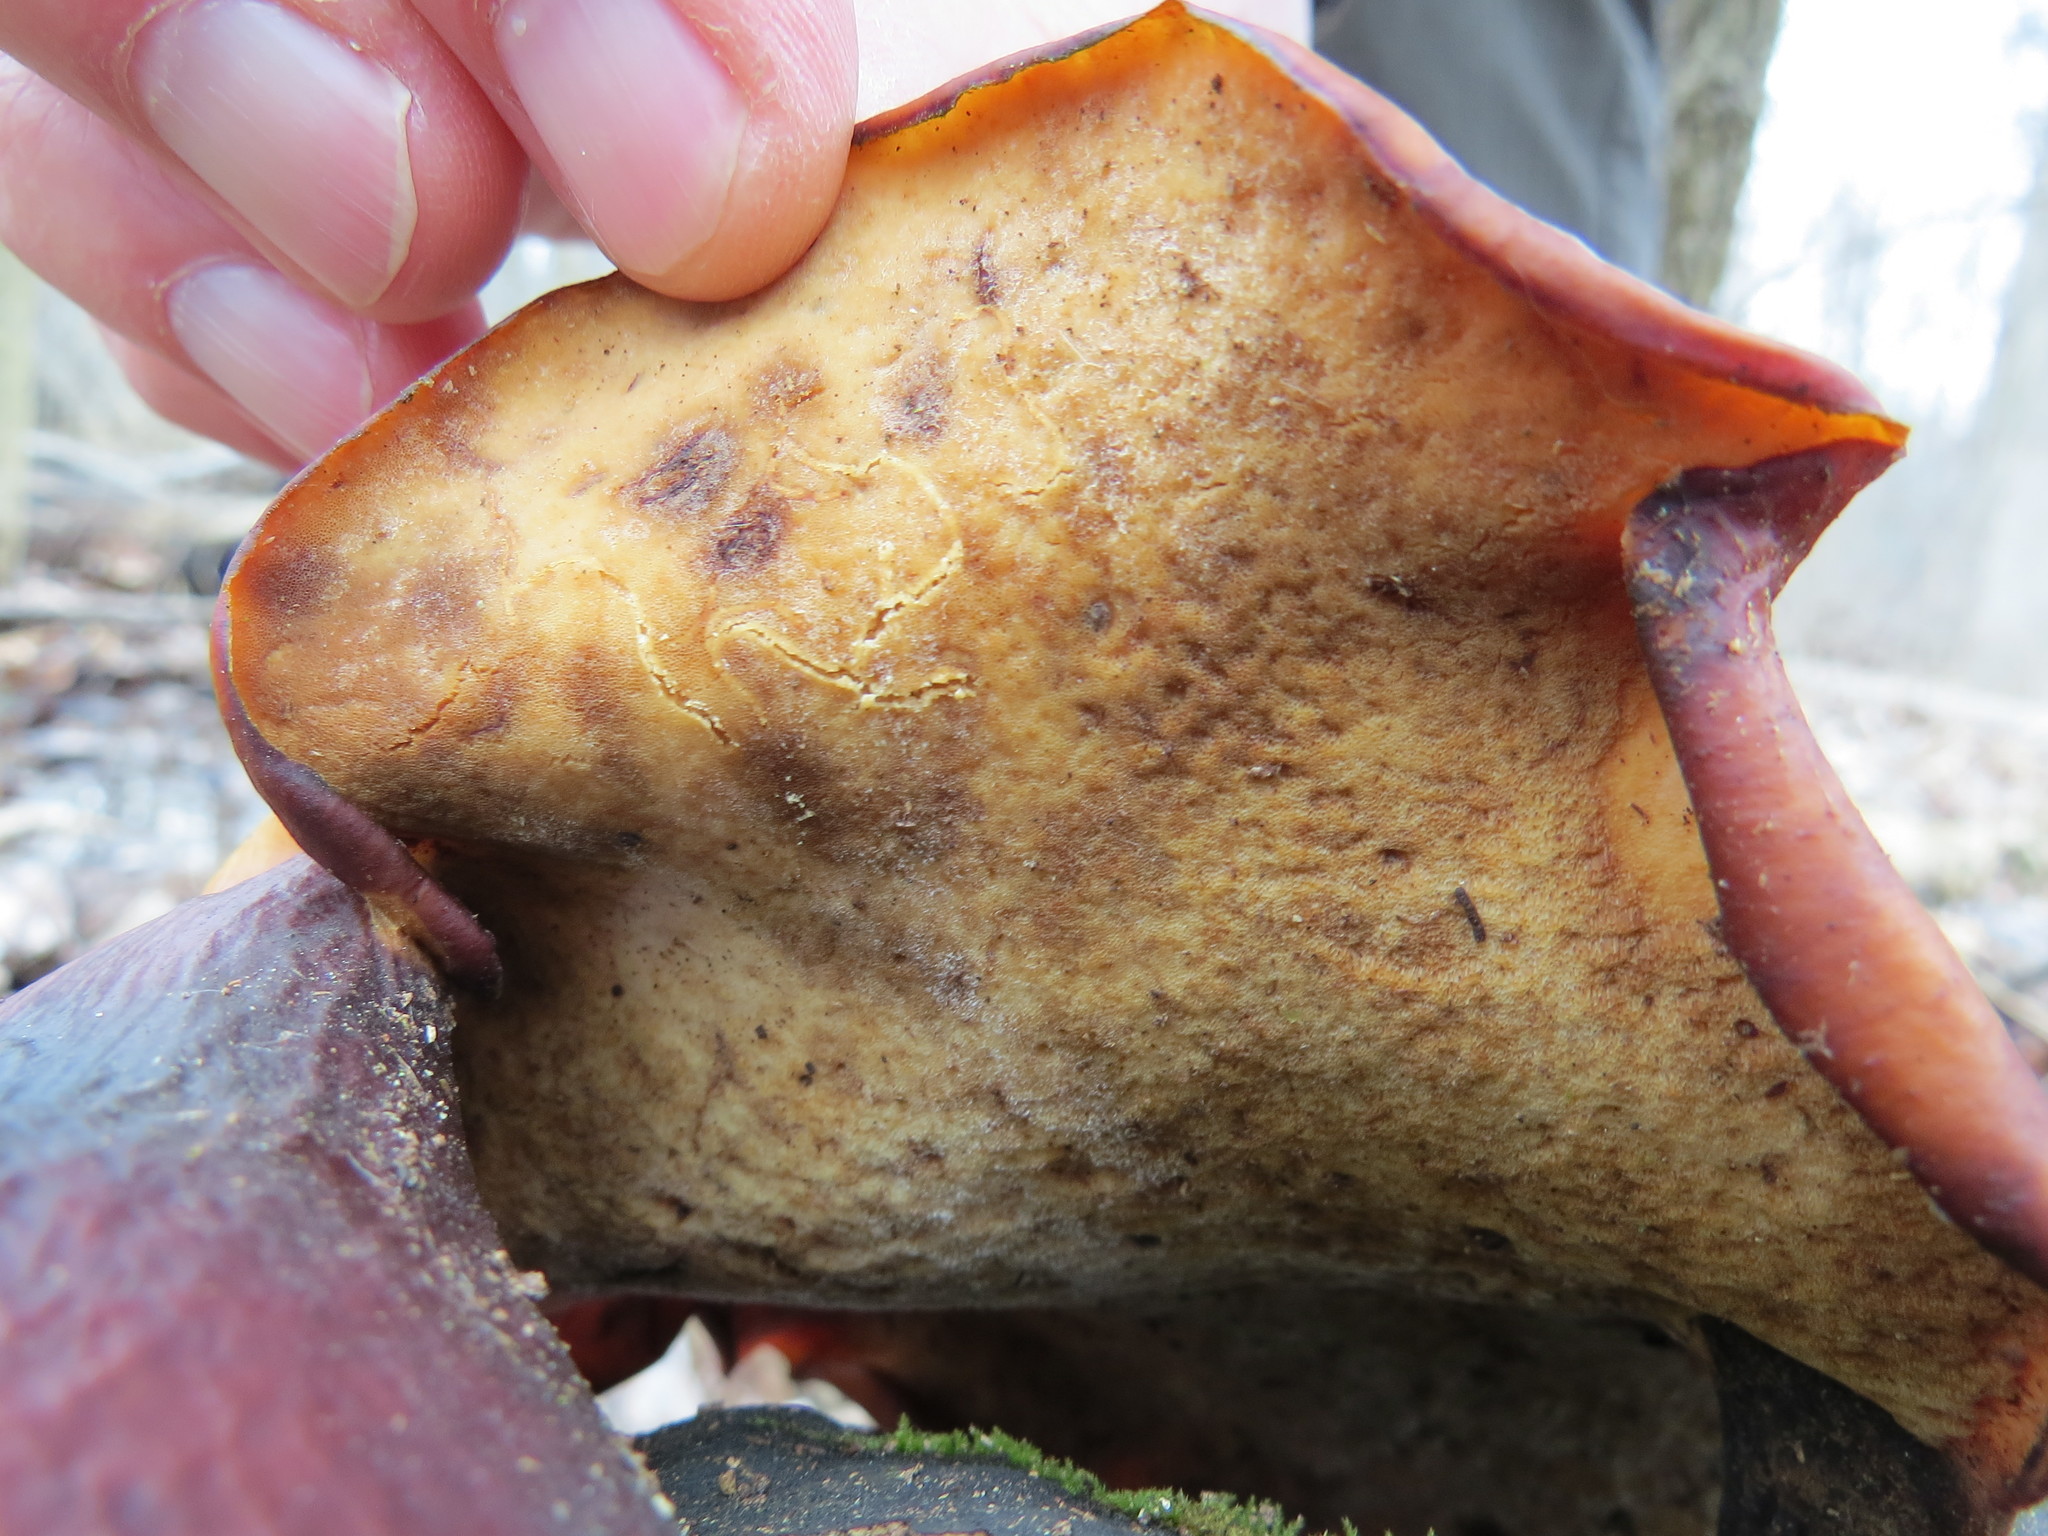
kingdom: Fungi
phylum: Basidiomycota
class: Agaricomycetes
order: Polyporales
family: Polyporaceae
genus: Picipes
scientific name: Picipes badius
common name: Bay polypore
